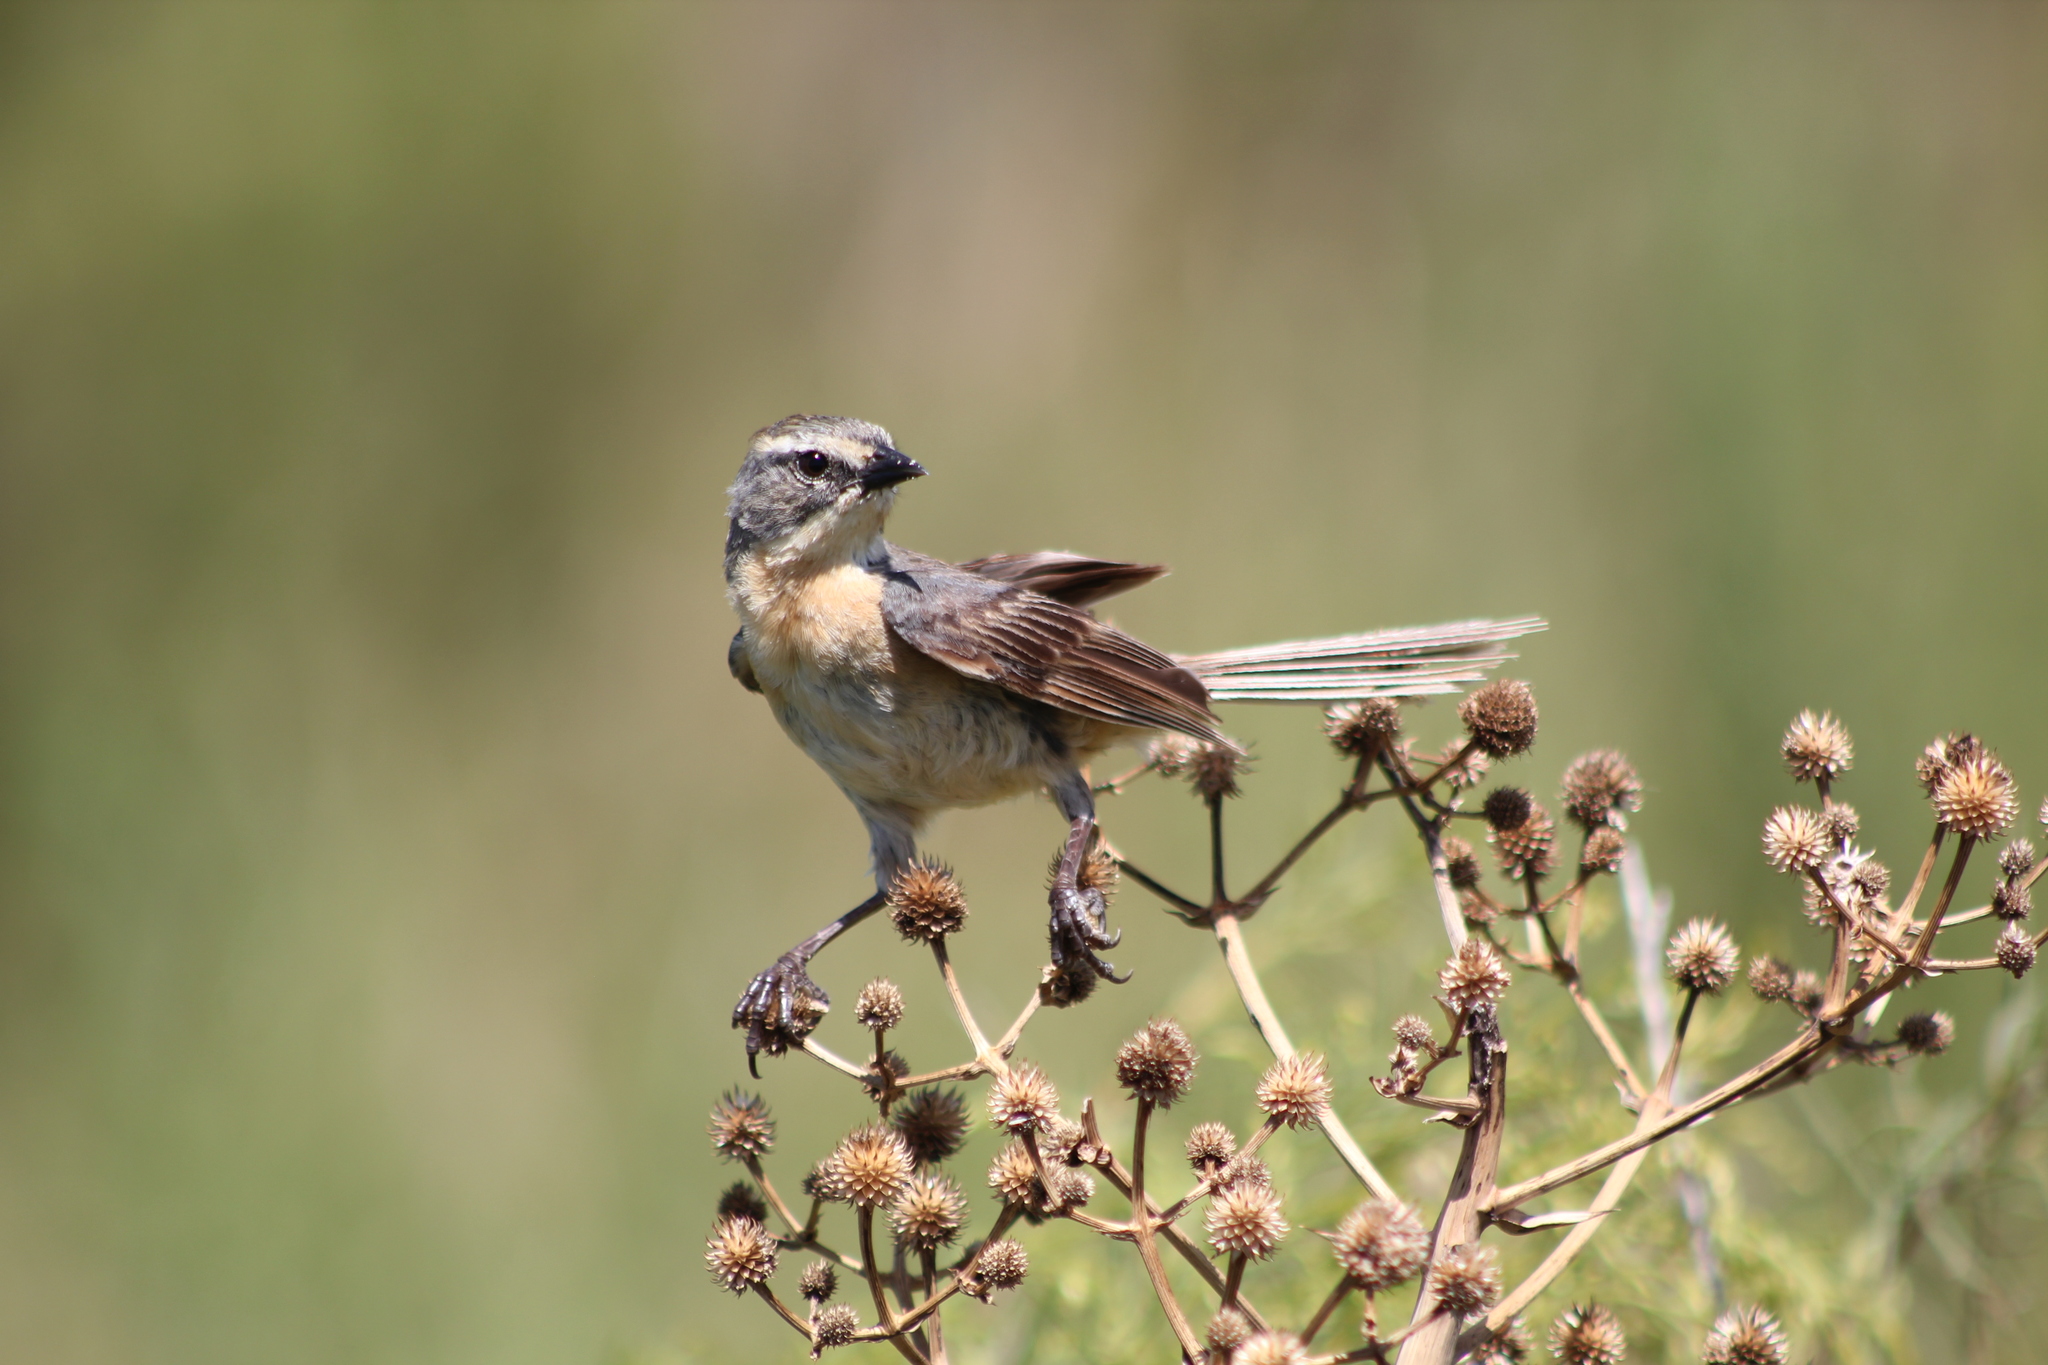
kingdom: Animalia
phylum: Chordata
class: Aves
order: Passeriformes
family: Thraupidae
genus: Donacospiza
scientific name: Donacospiza albifrons
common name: Long-tailed reed finch
